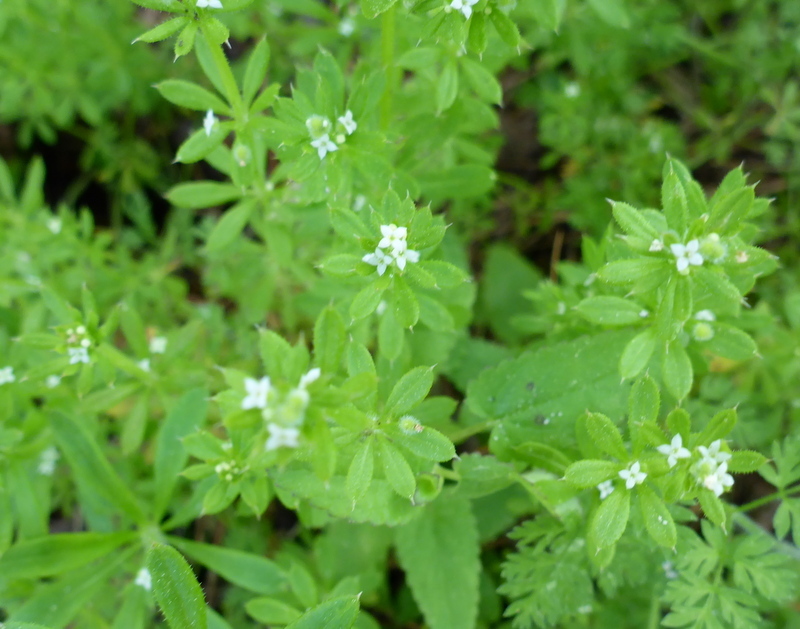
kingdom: Plantae
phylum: Tracheophyta
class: Magnoliopsida
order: Gentianales
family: Rubiaceae
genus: Galium
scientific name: Galium aparine
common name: Cleavers
